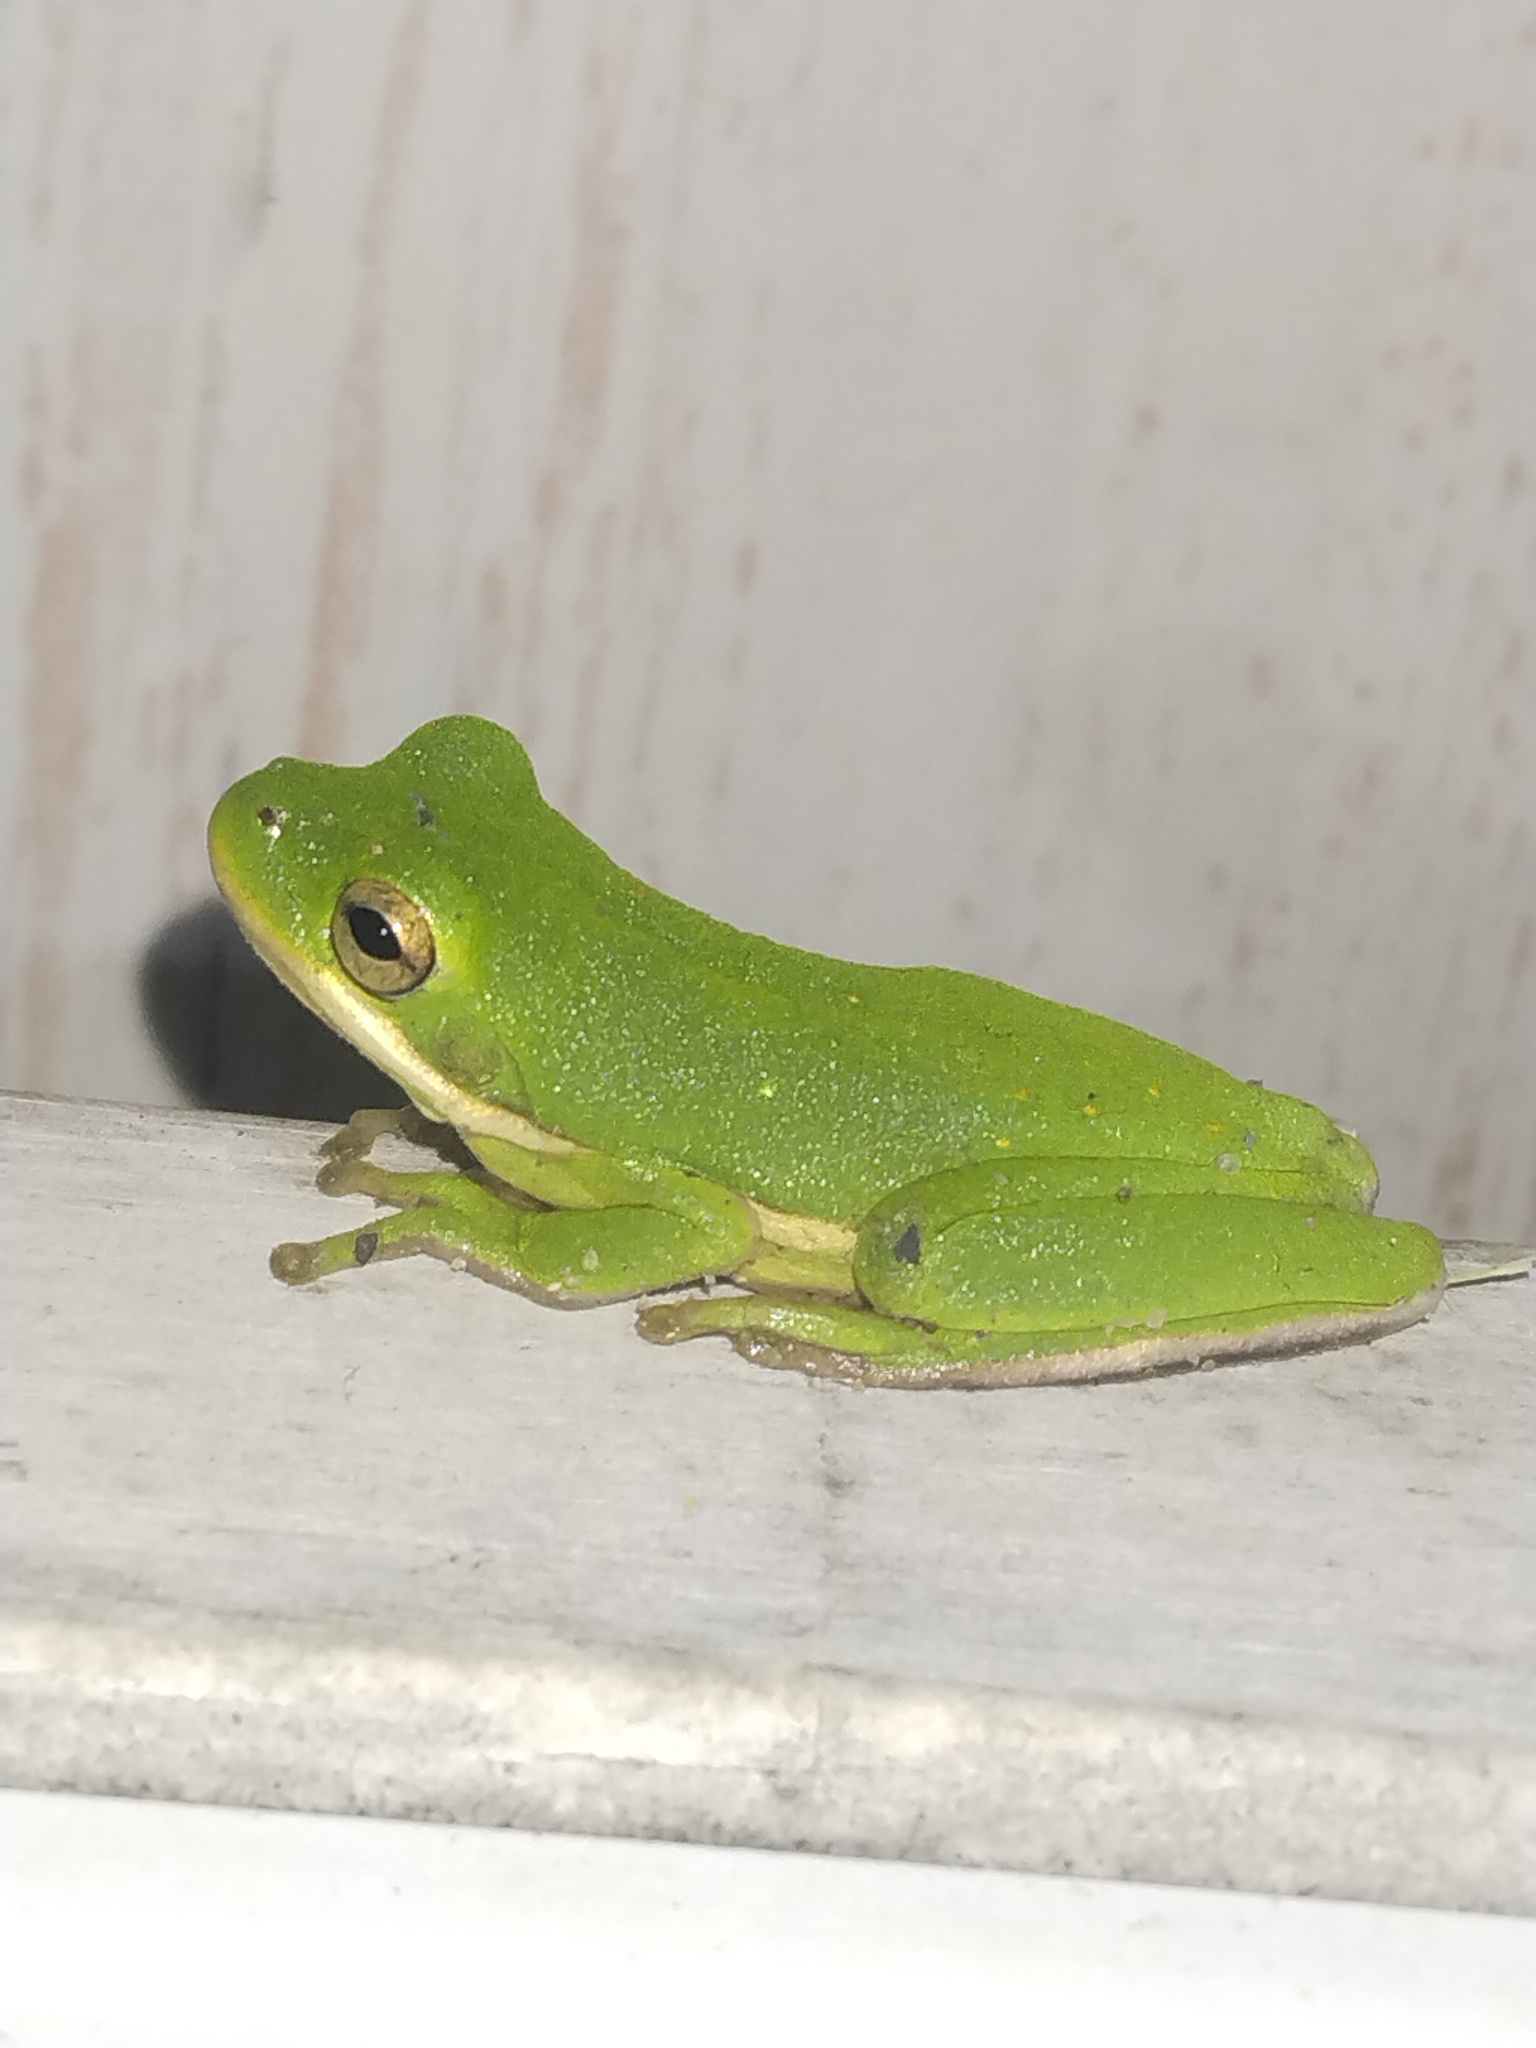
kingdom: Animalia
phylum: Chordata
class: Amphibia
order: Anura
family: Hylidae
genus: Dryophytes
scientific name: Dryophytes cinereus
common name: Green treefrog
